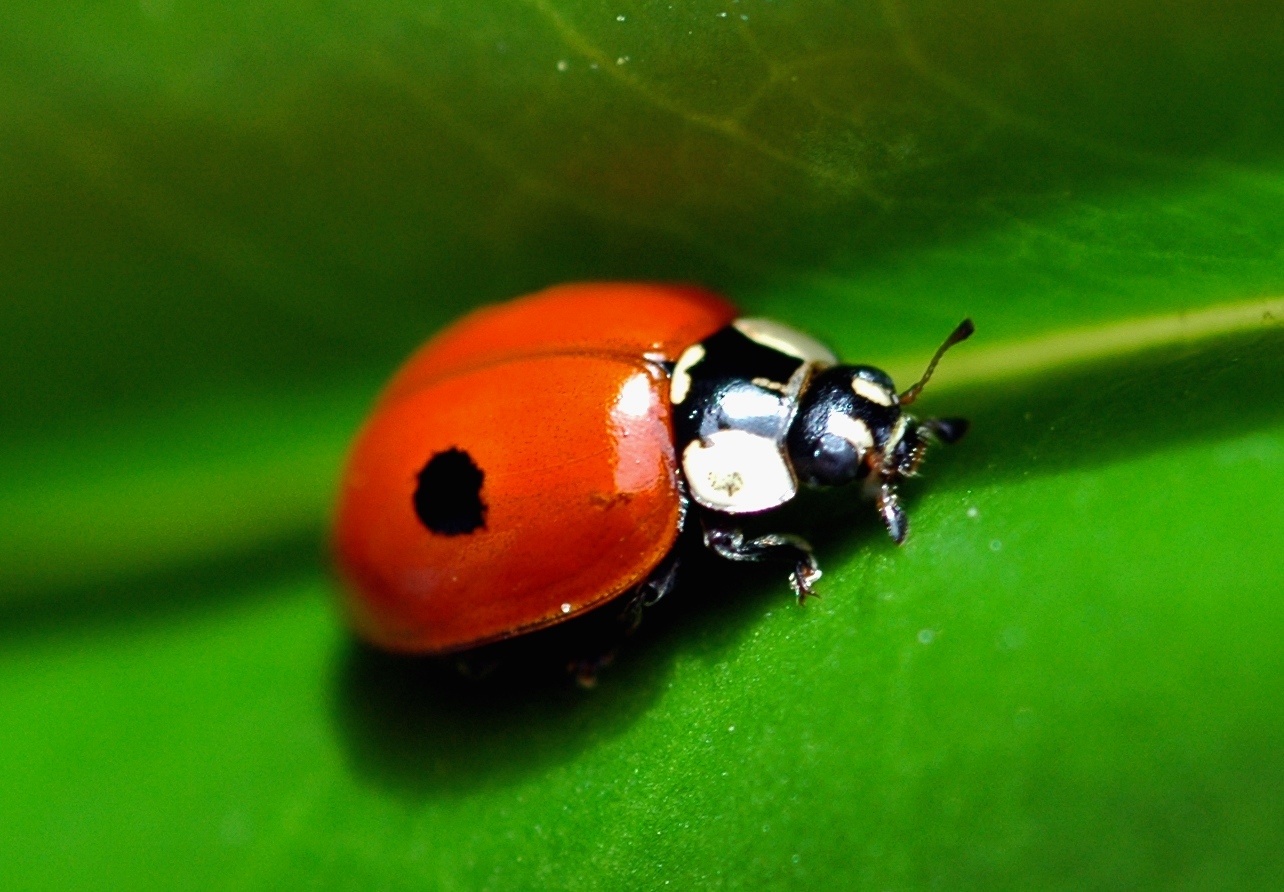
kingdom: Animalia
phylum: Arthropoda
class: Insecta
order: Coleoptera
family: Coccinellidae
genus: Adalia
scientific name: Adalia bipunctata
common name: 2-spot ladybird
